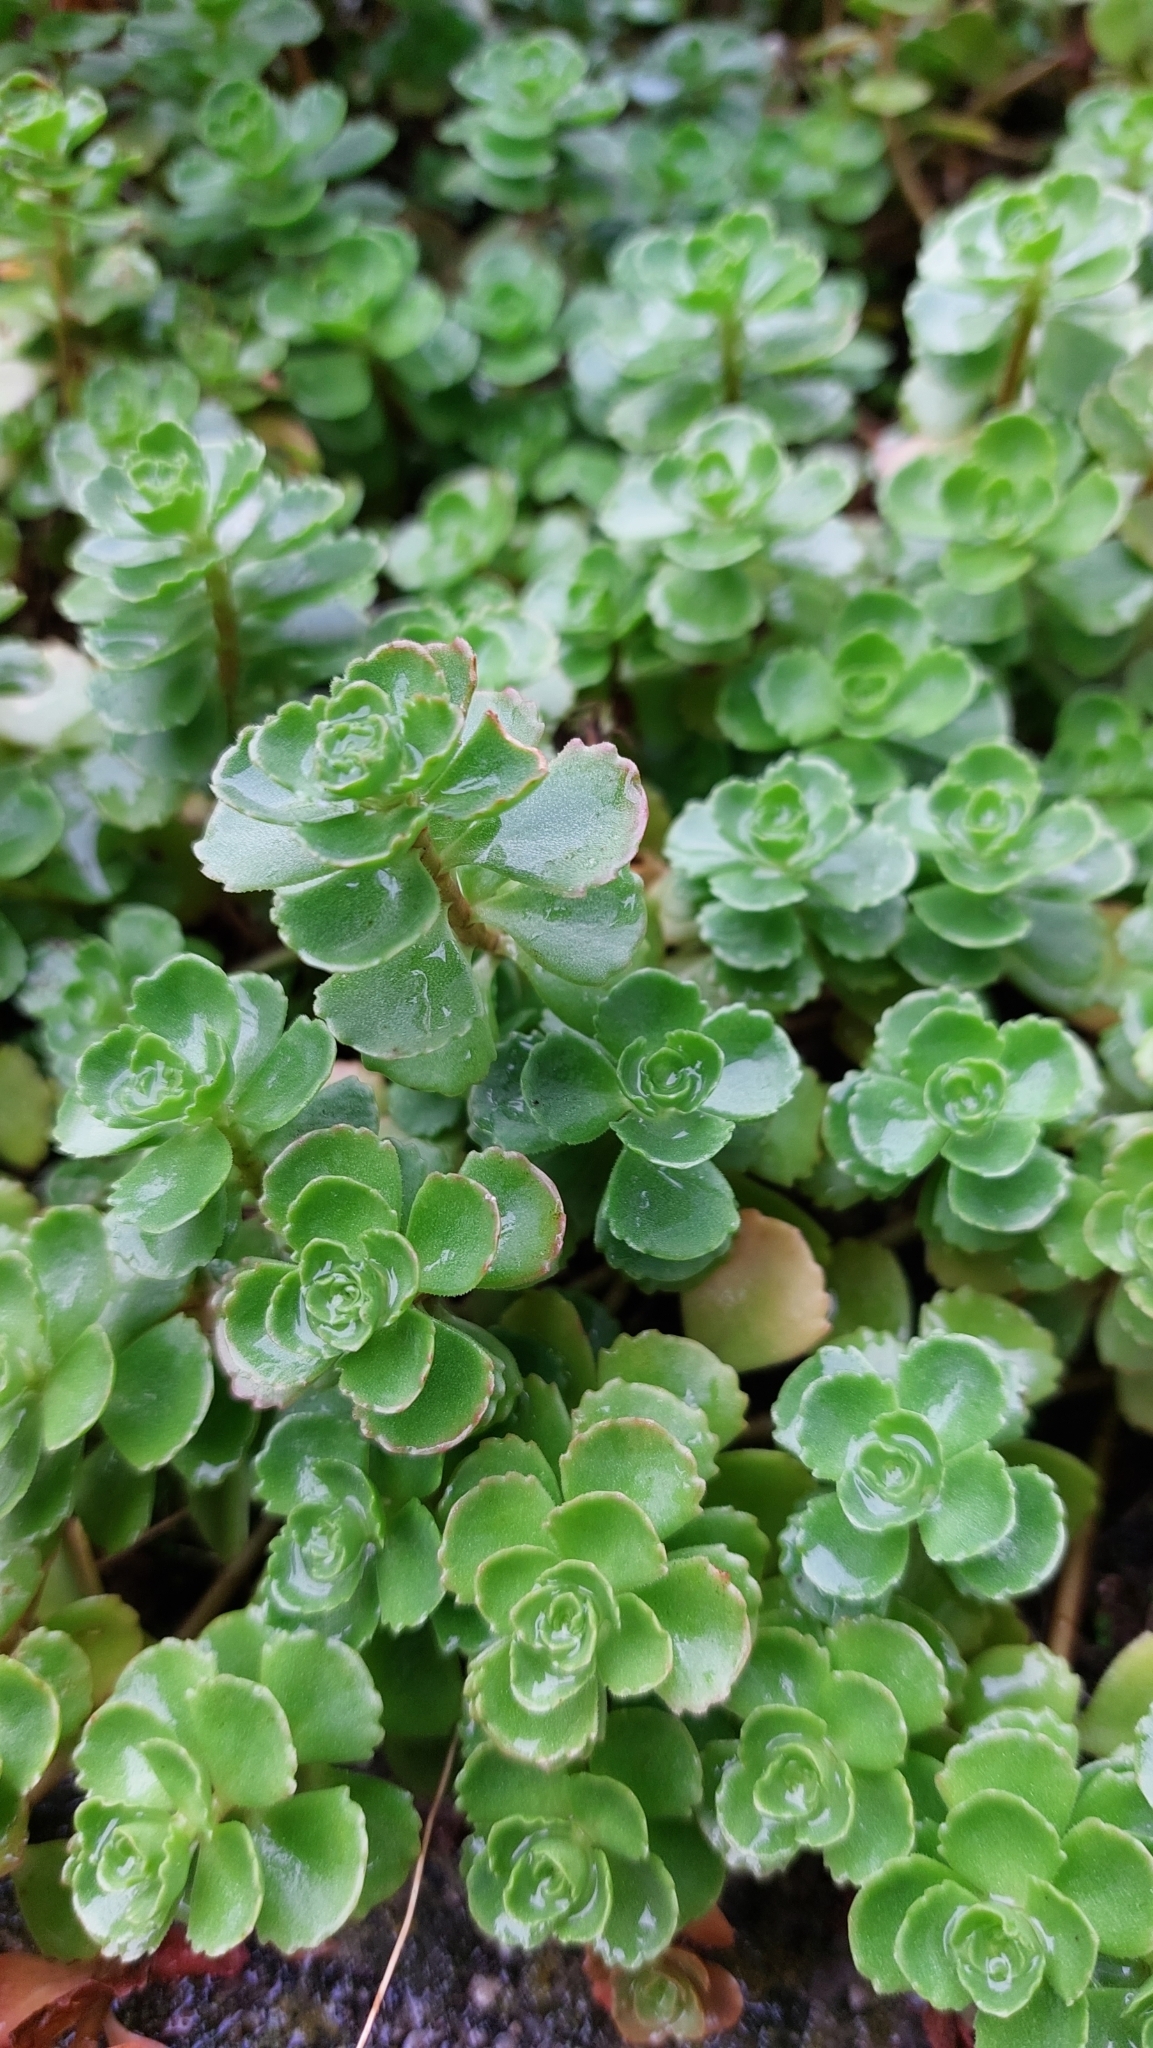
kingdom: Plantae
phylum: Tracheophyta
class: Magnoliopsida
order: Saxifragales
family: Crassulaceae
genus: Phedimus
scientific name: Phedimus spurius
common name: Caucasian stonecrop
